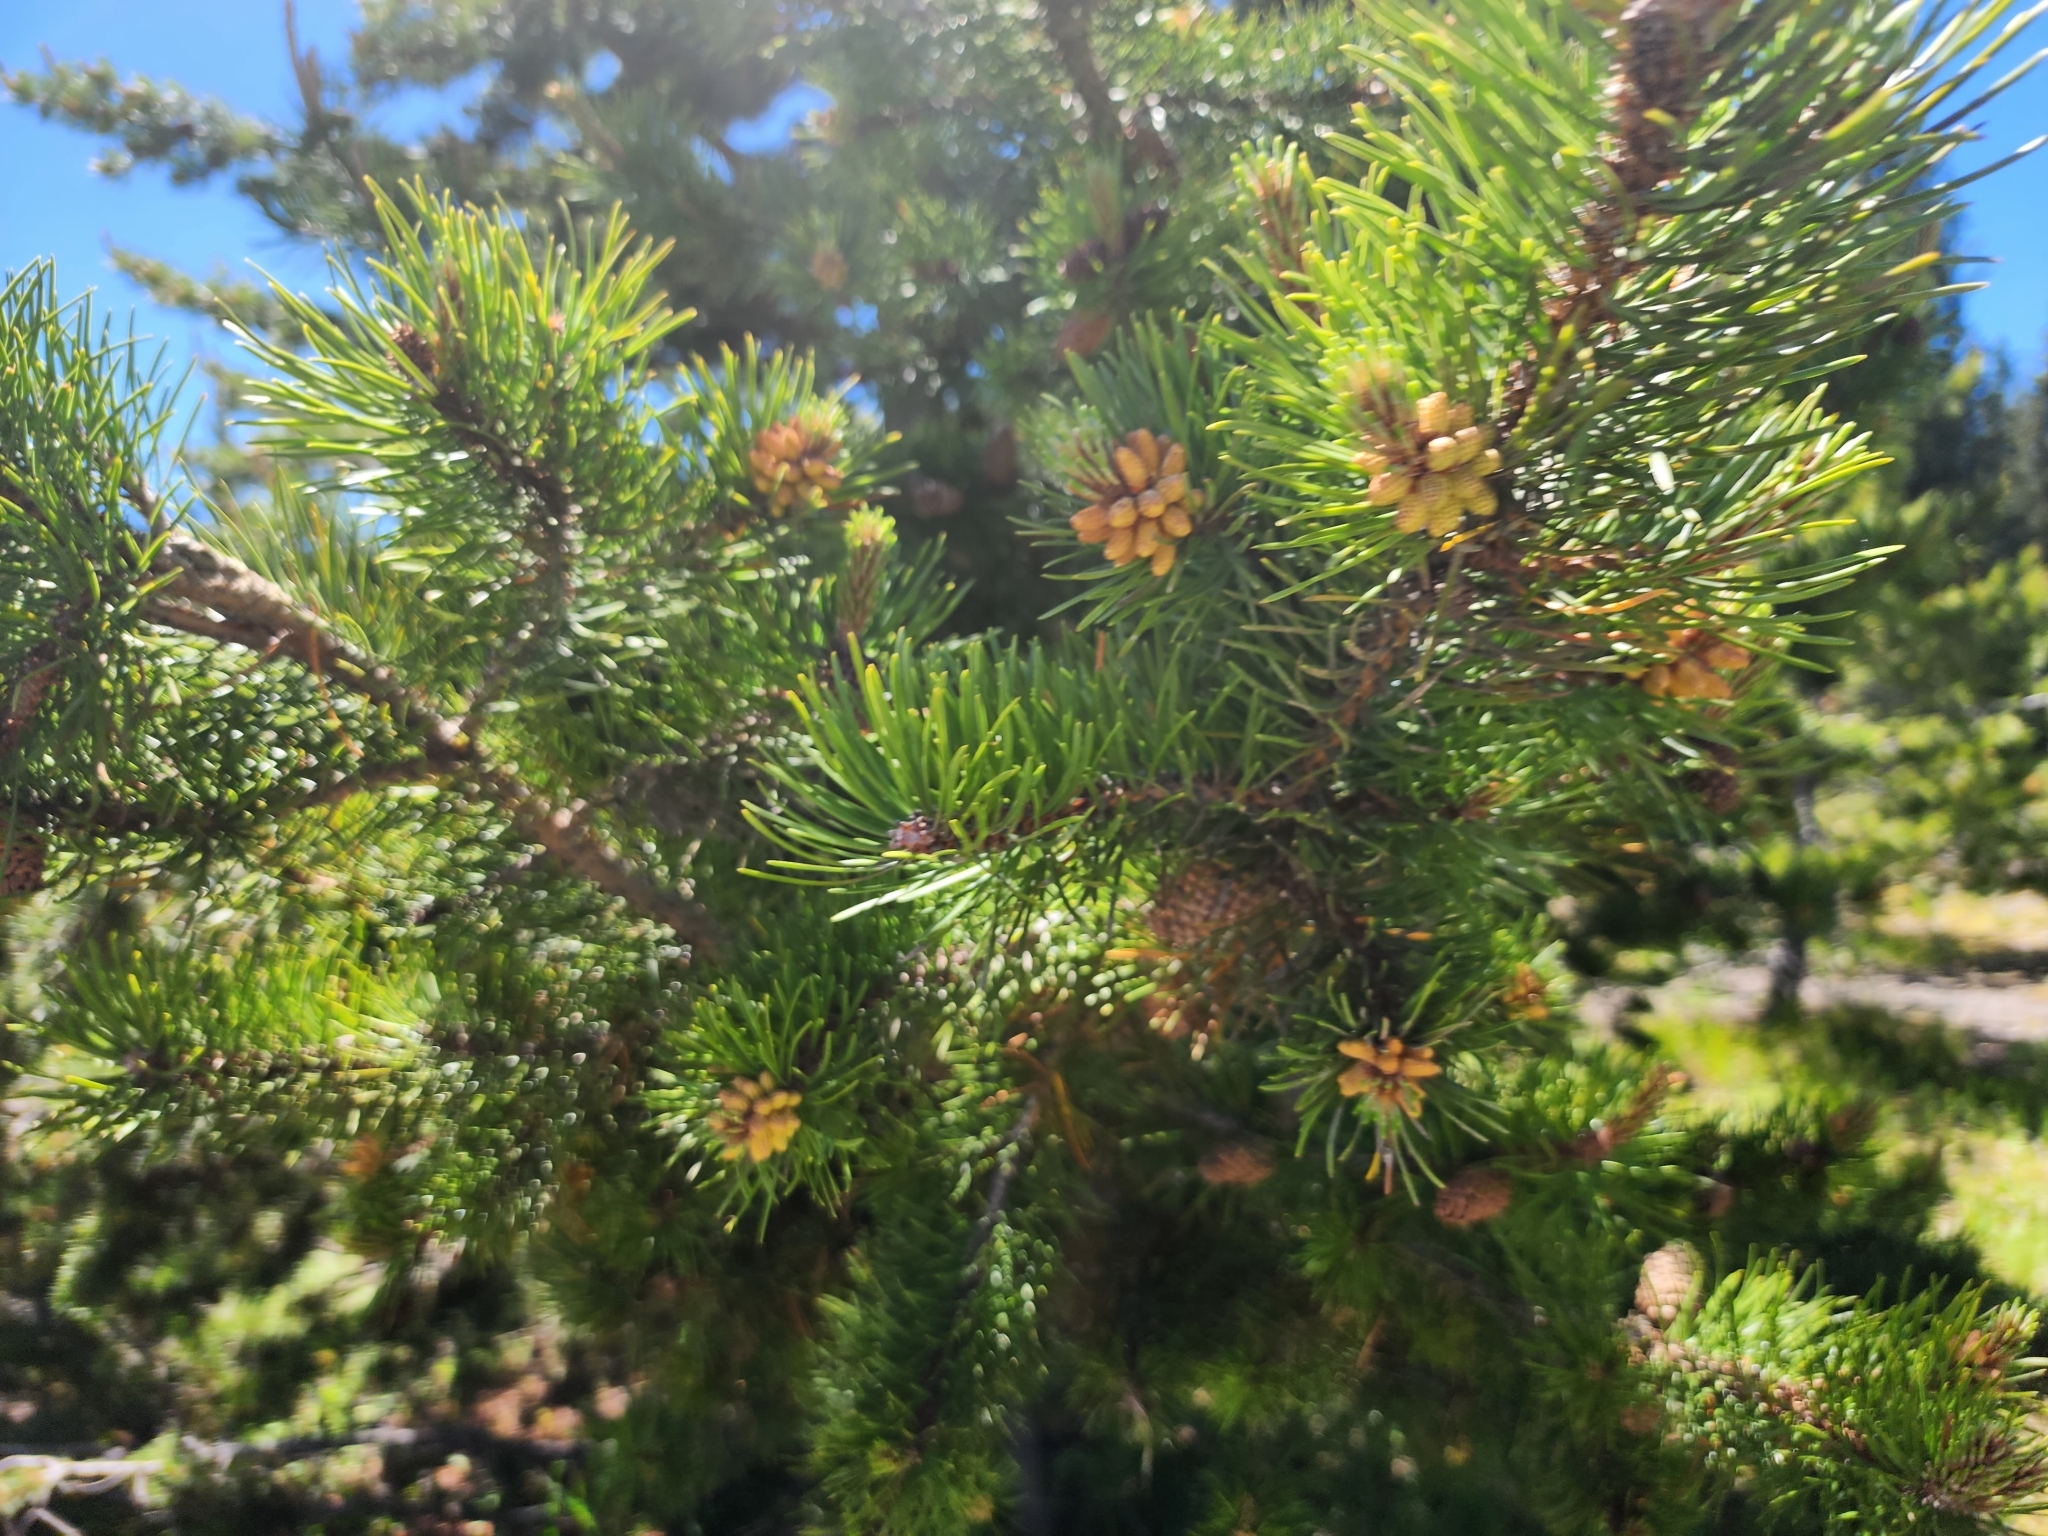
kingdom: Plantae
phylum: Tracheophyta
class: Pinopsida
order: Pinales
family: Pinaceae
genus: Pinus
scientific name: Pinus contorta
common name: Lodgepole pine
